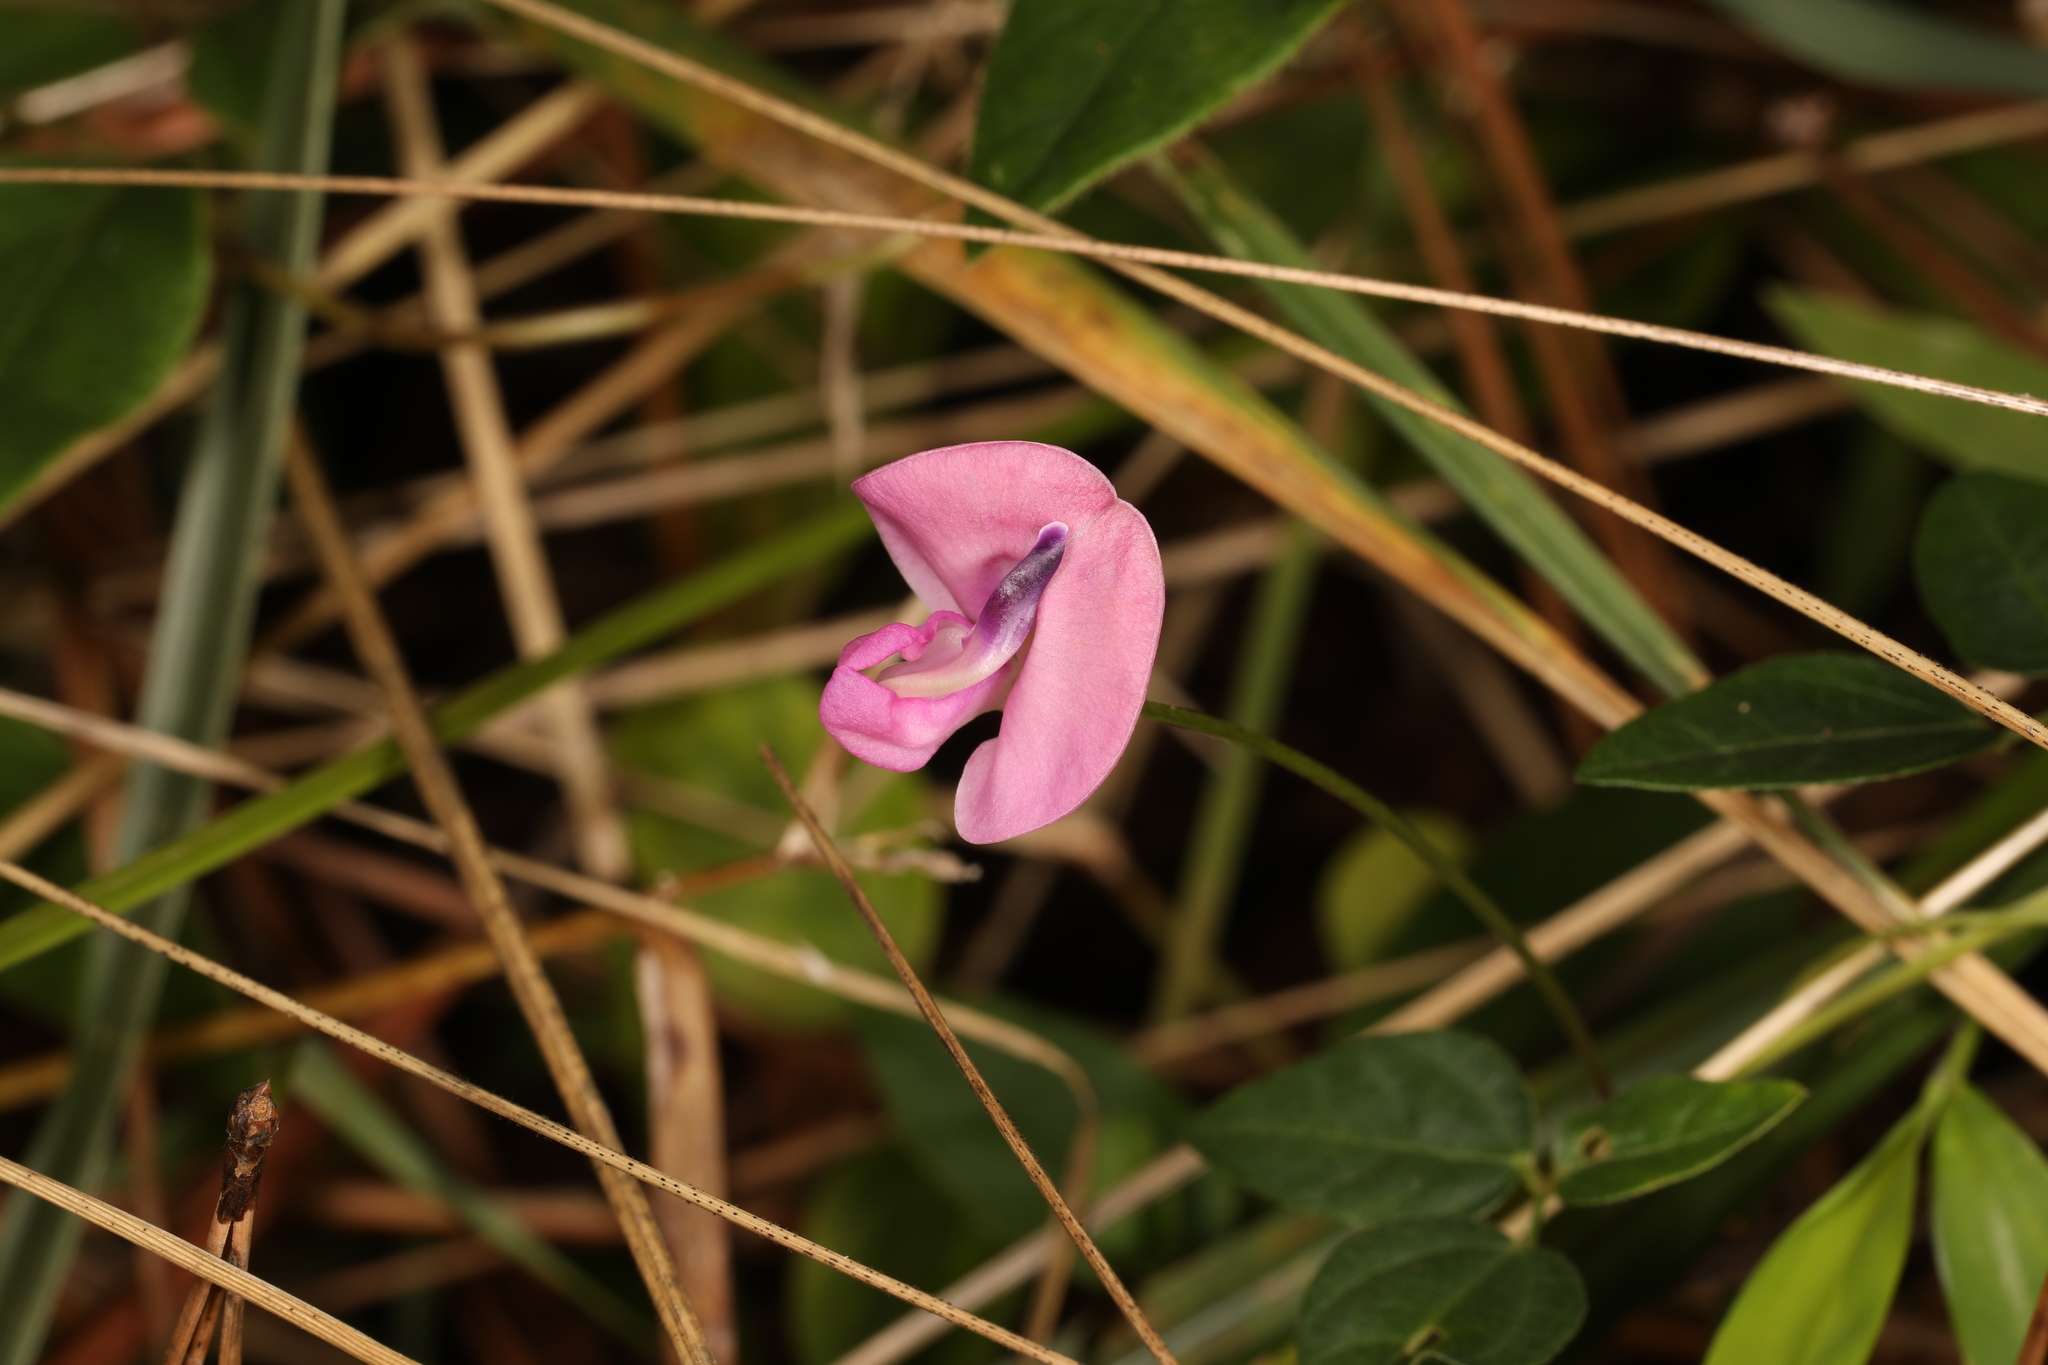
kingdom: Plantae
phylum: Tracheophyta
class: Magnoliopsida
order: Fabales
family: Fabaceae
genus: Strophostyles
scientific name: Strophostyles umbellata
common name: Perennial wild bean
